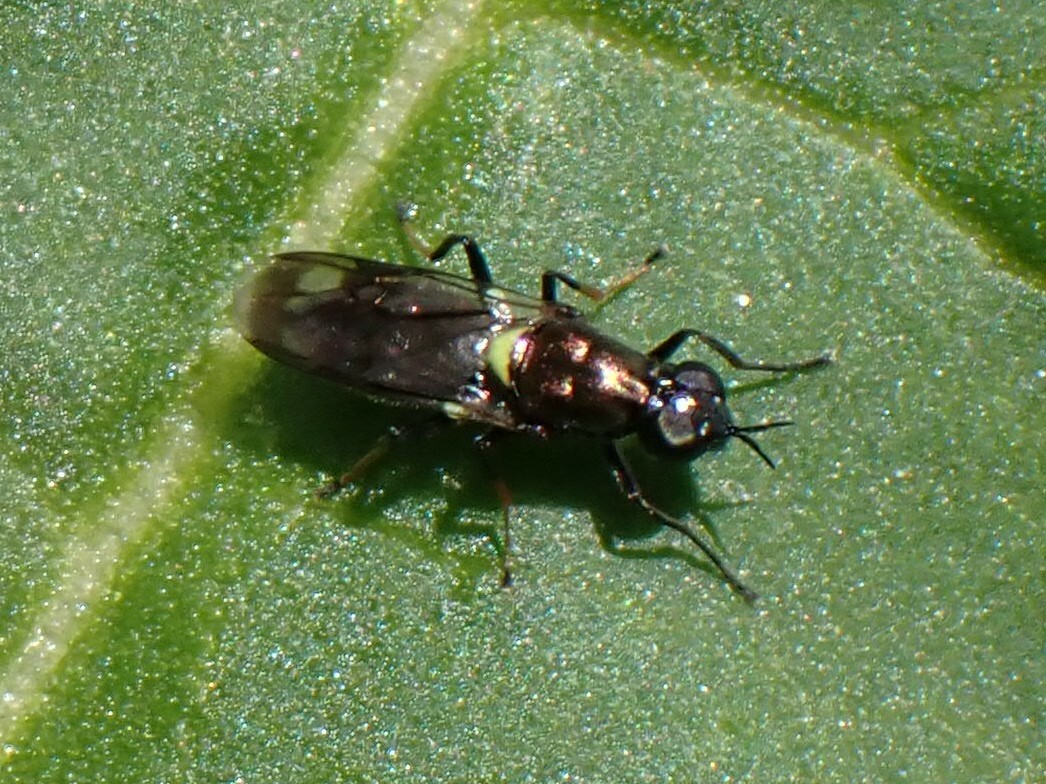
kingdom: Animalia
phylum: Arthropoda
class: Insecta
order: Diptera
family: Stratiomyidae
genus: Myxosargus
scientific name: Myxosargus nigricormis
